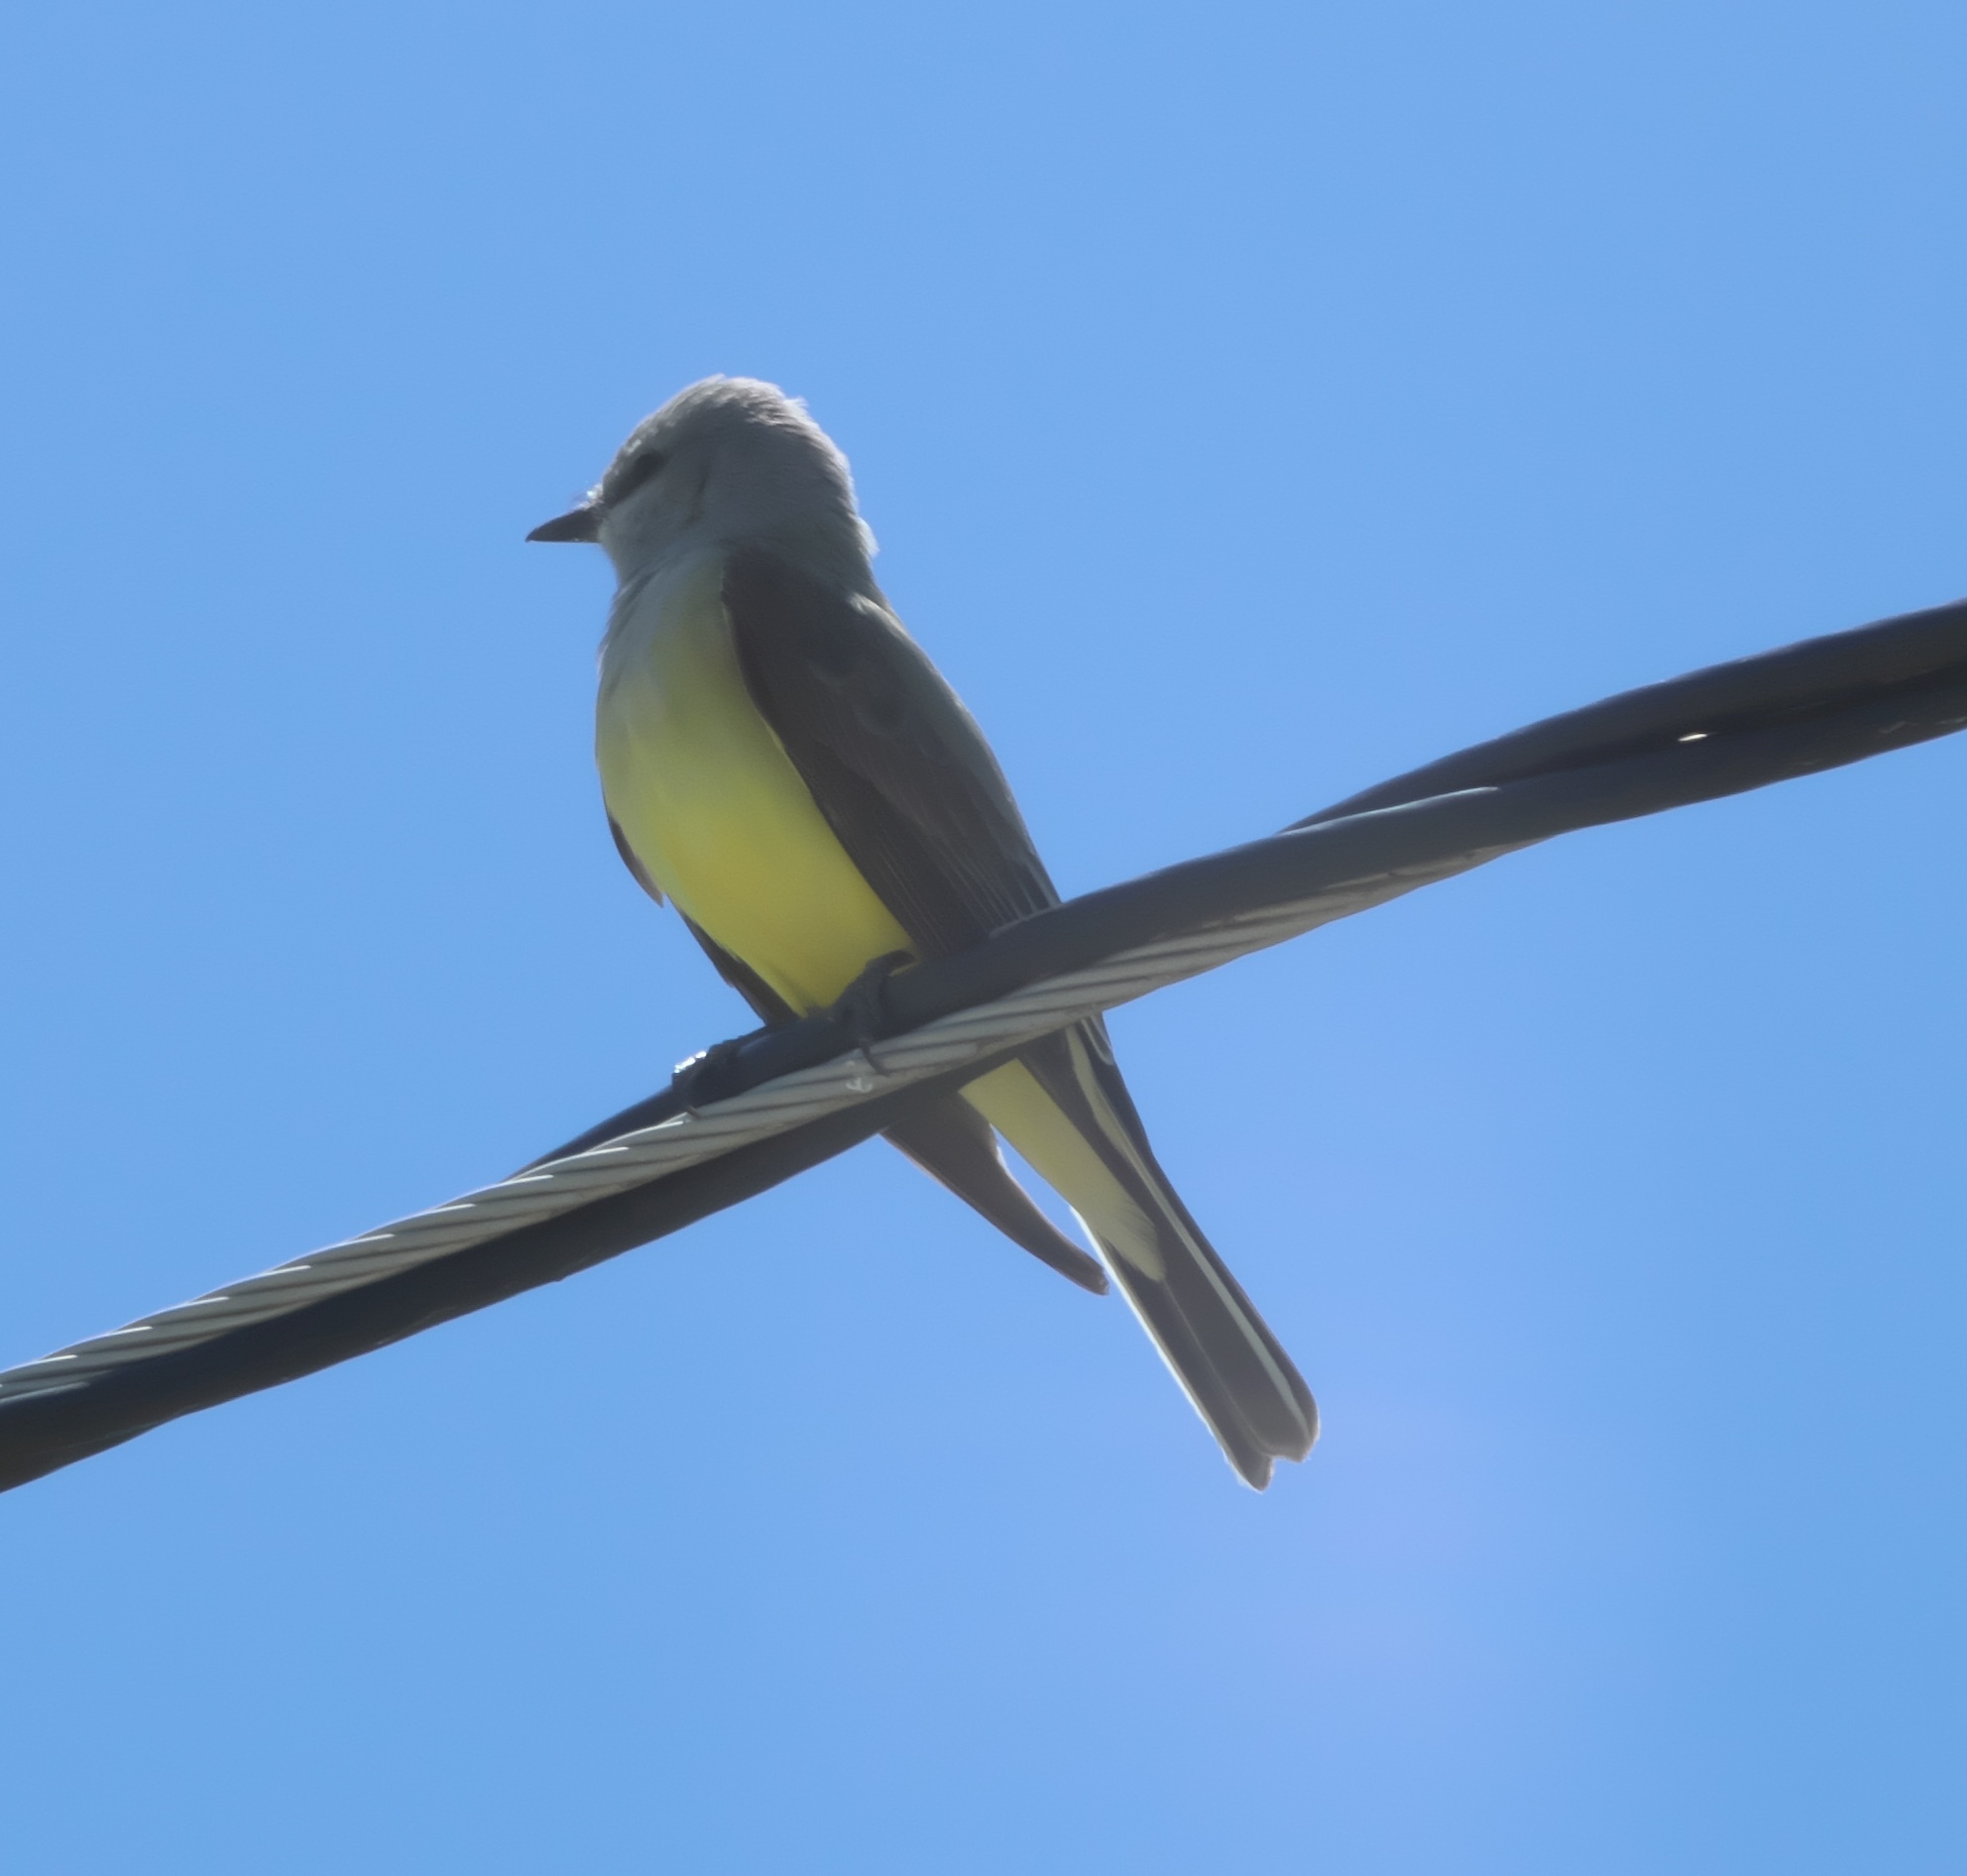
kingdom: Animalia
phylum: Chordata
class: Aves
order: Passeriformes
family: Tyrannidae
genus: Tyrannus
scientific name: Tyrannus verticalis
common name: Western kingbird
